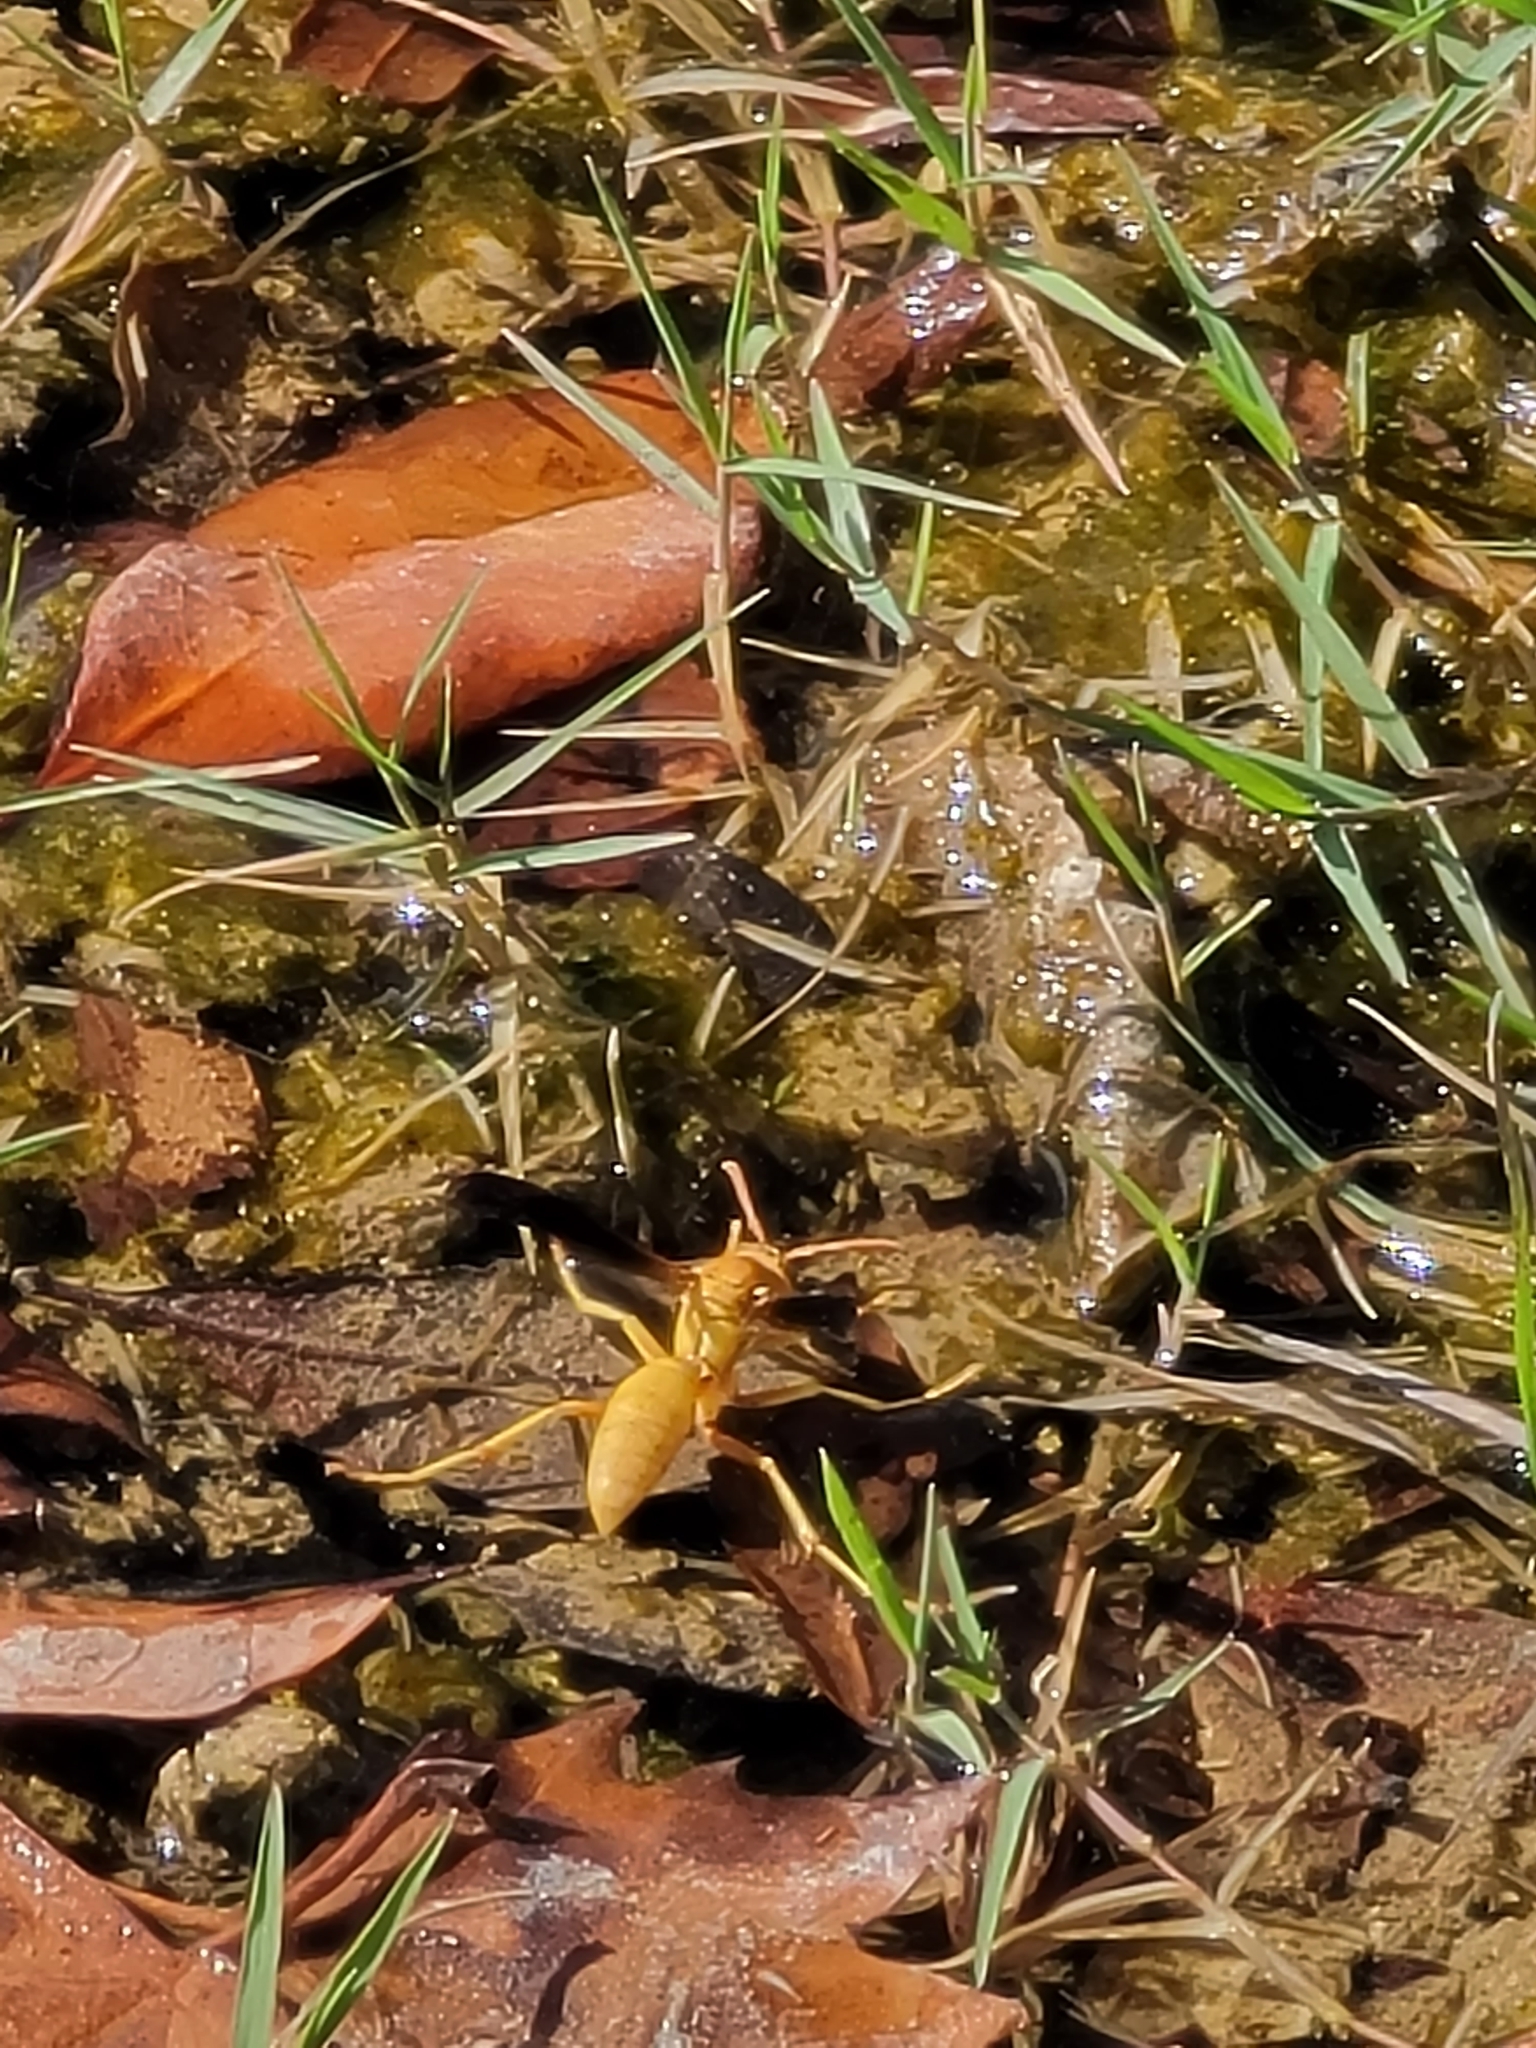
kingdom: Animalia
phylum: Arthropoda
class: Insecta
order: Hymenoptera
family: Eumenidae
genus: Polistes
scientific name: Polistes flavus
